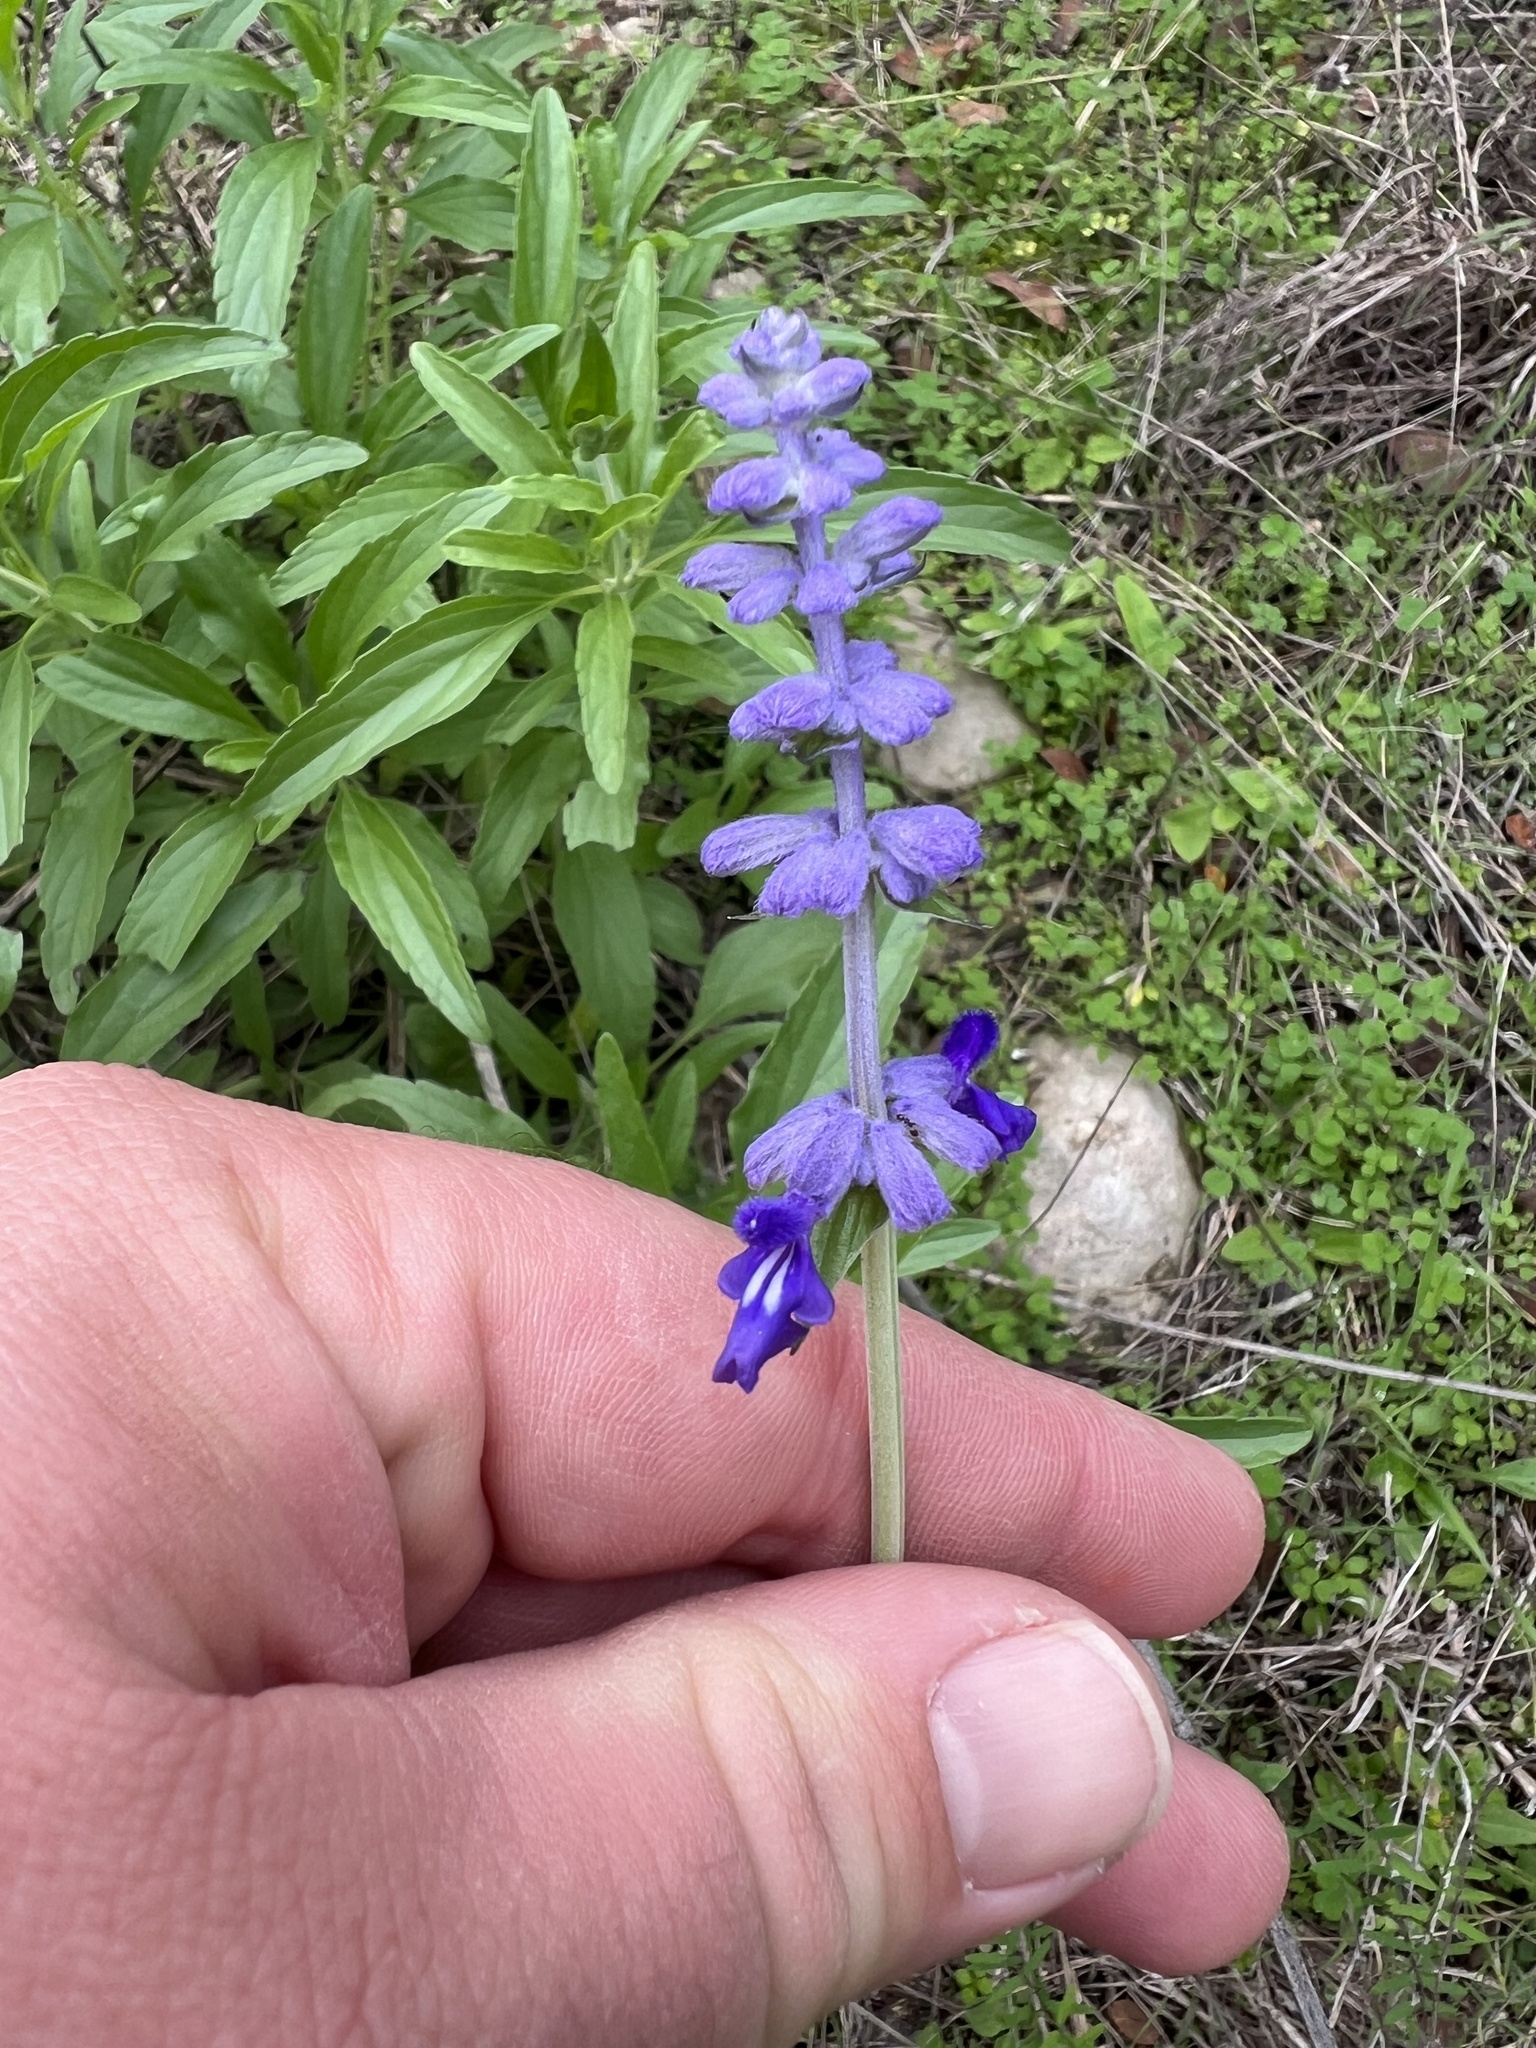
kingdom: Plantae
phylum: Tracheophyta
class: Magnoliopsida
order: Lamiales
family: Lamiaceae
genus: Salvia
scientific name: Salvia farinacea
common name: Mealy sage
